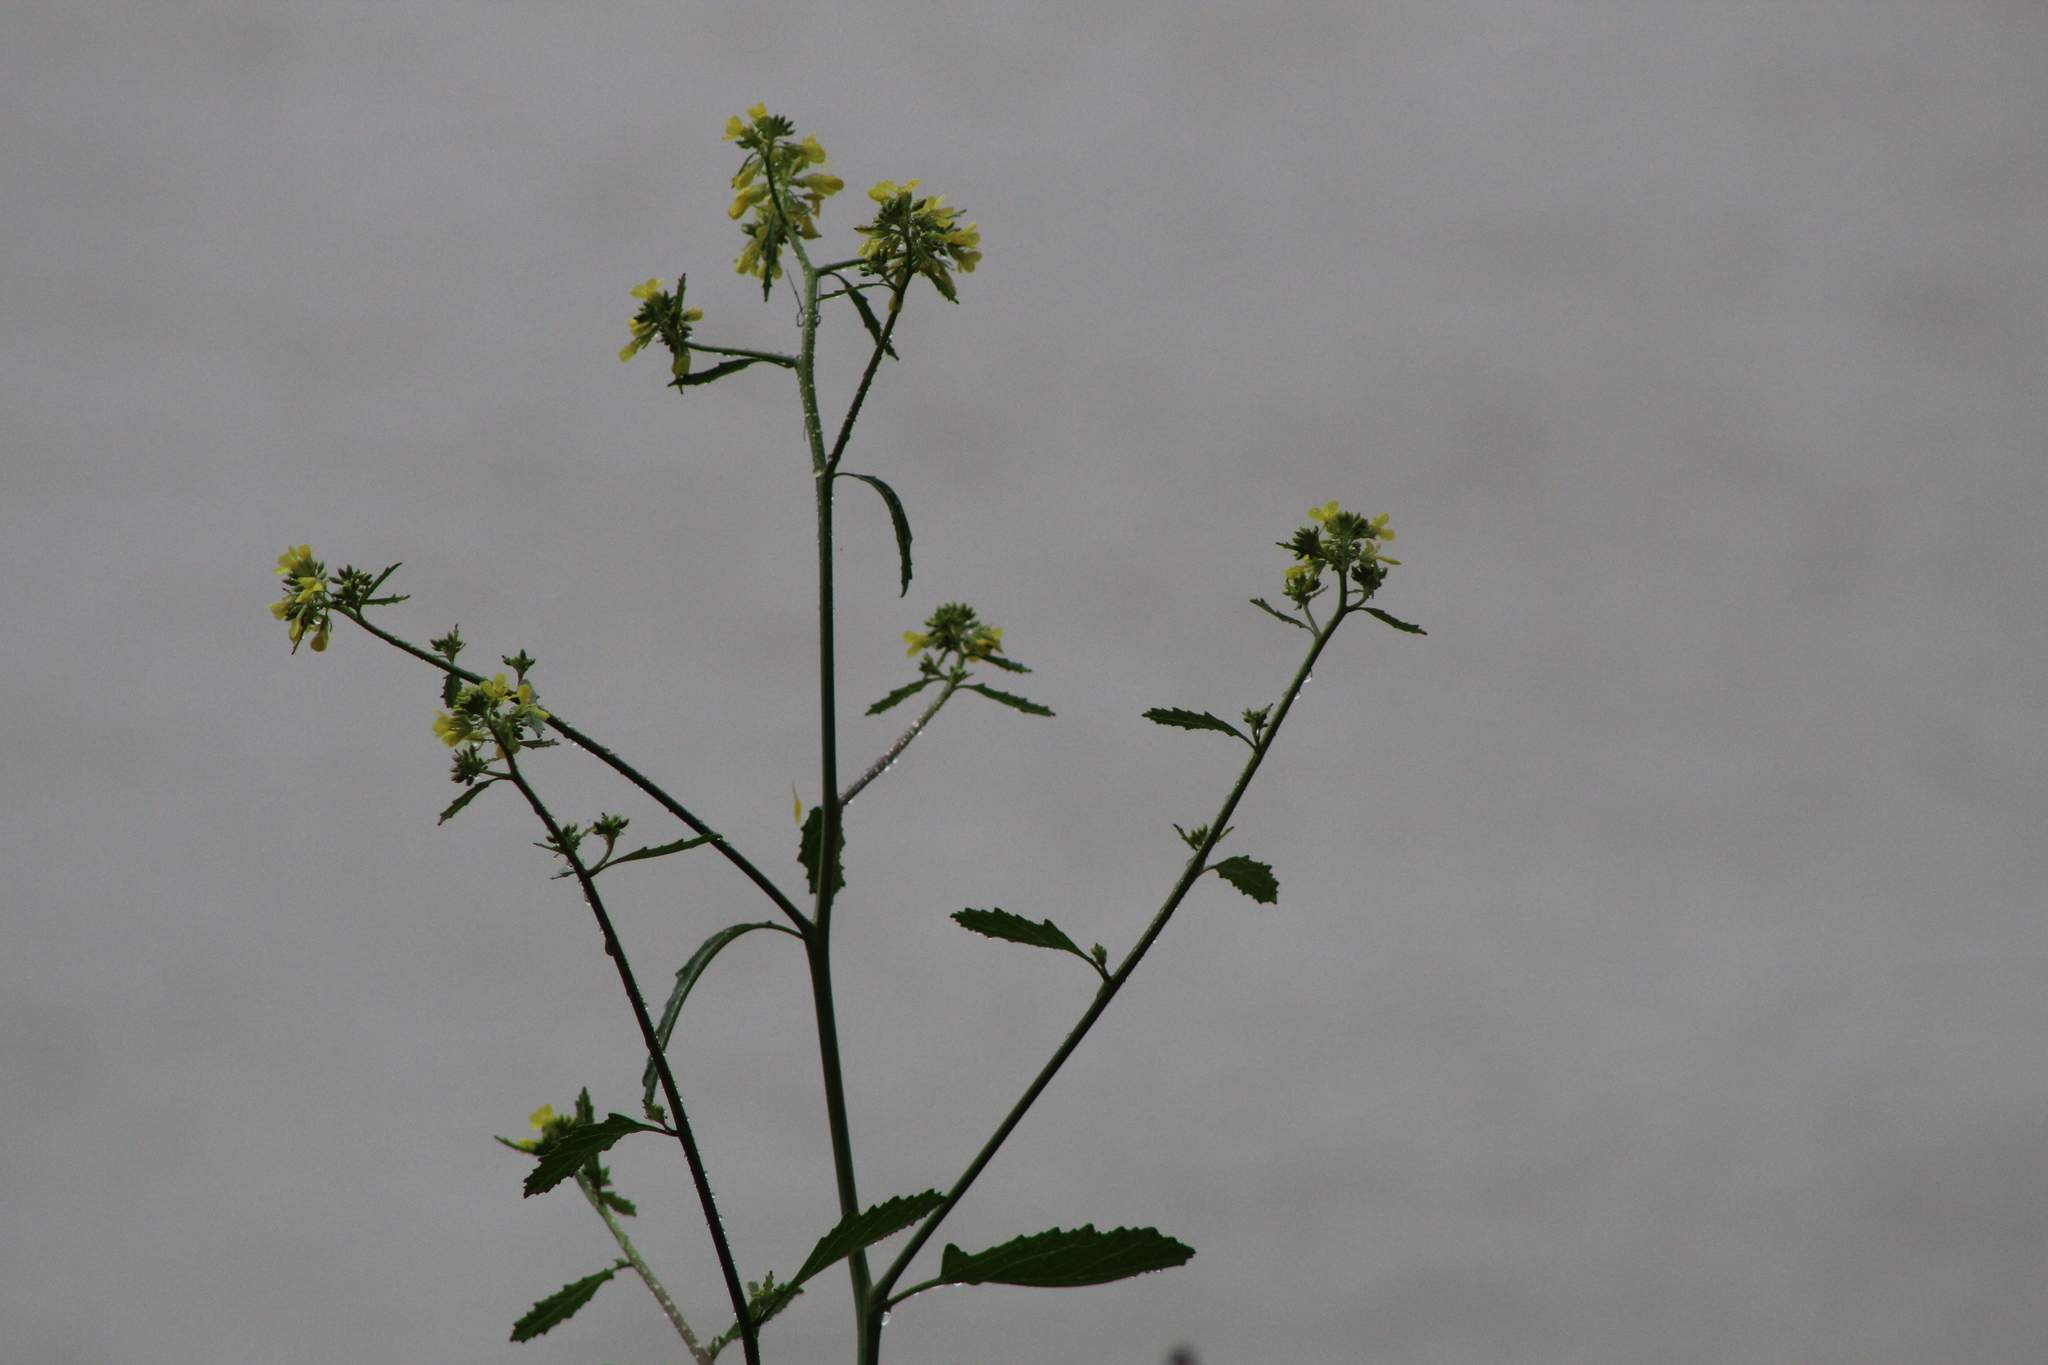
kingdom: Plantae
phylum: Tracheophyta
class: Magnoliopsida
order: Brassicales
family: Brassicaceae
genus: Rapistrum
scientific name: Rapistrum rugosum
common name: Annual bastardcabbage
